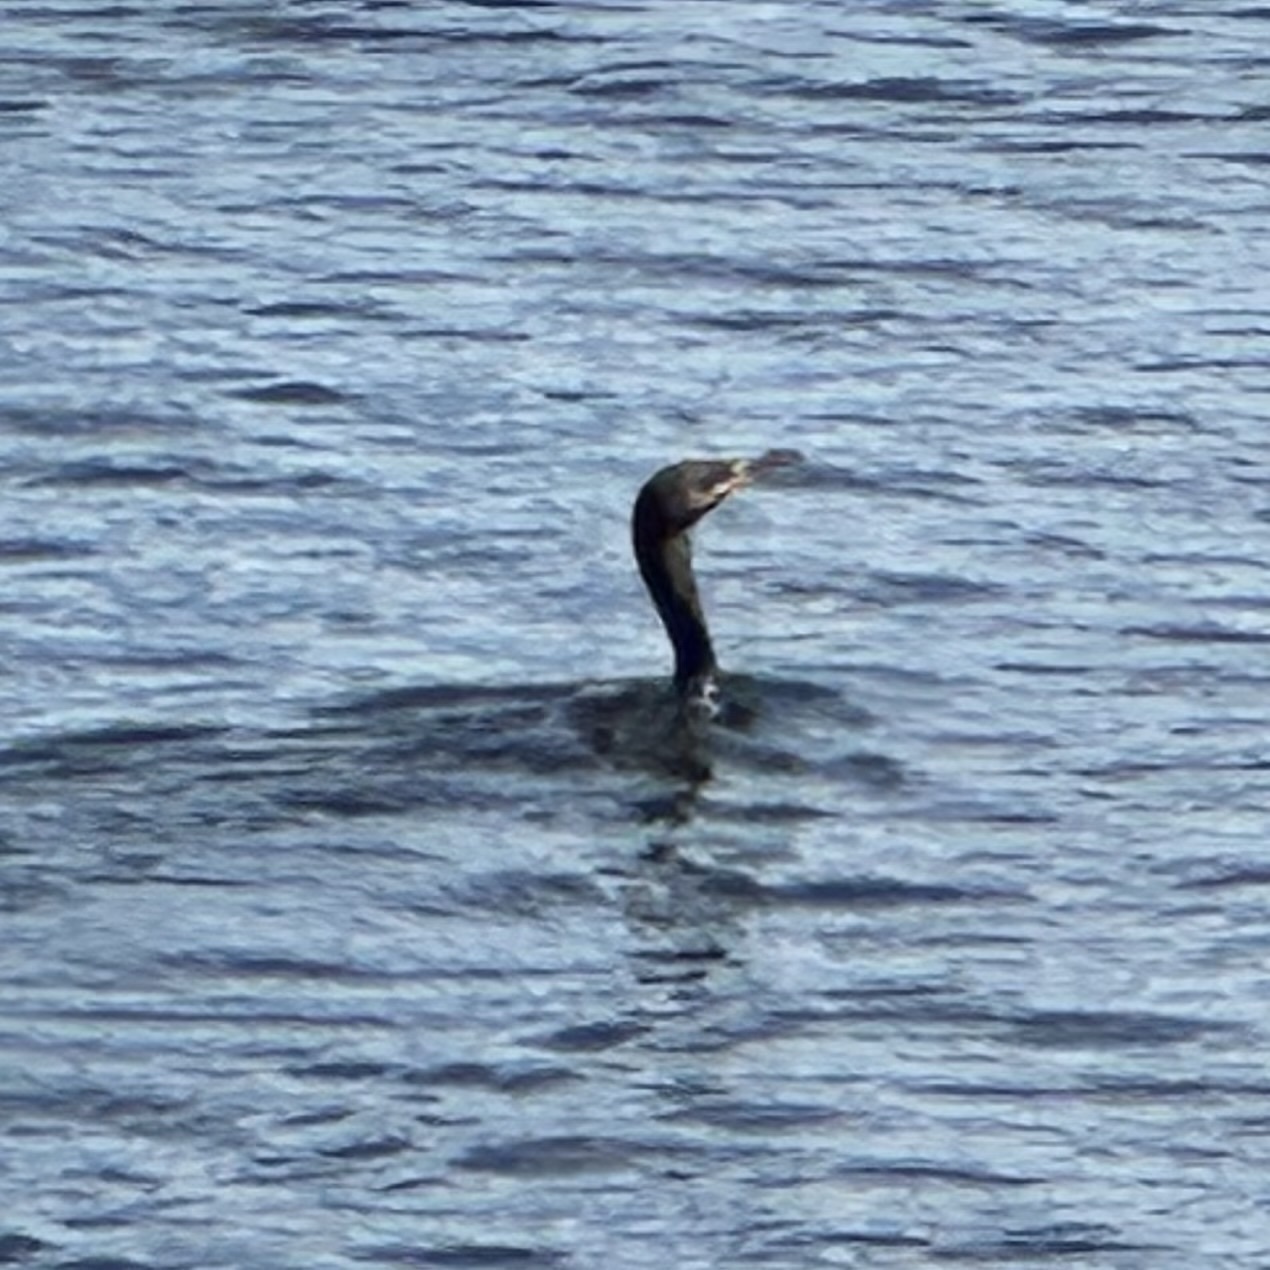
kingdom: Animalia
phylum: Chordata
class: Aves
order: Suliformes
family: Phalacrocoracidae
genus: Phalacrocorax
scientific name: Phalacrocorax auritus
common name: Double-crested cormorant
